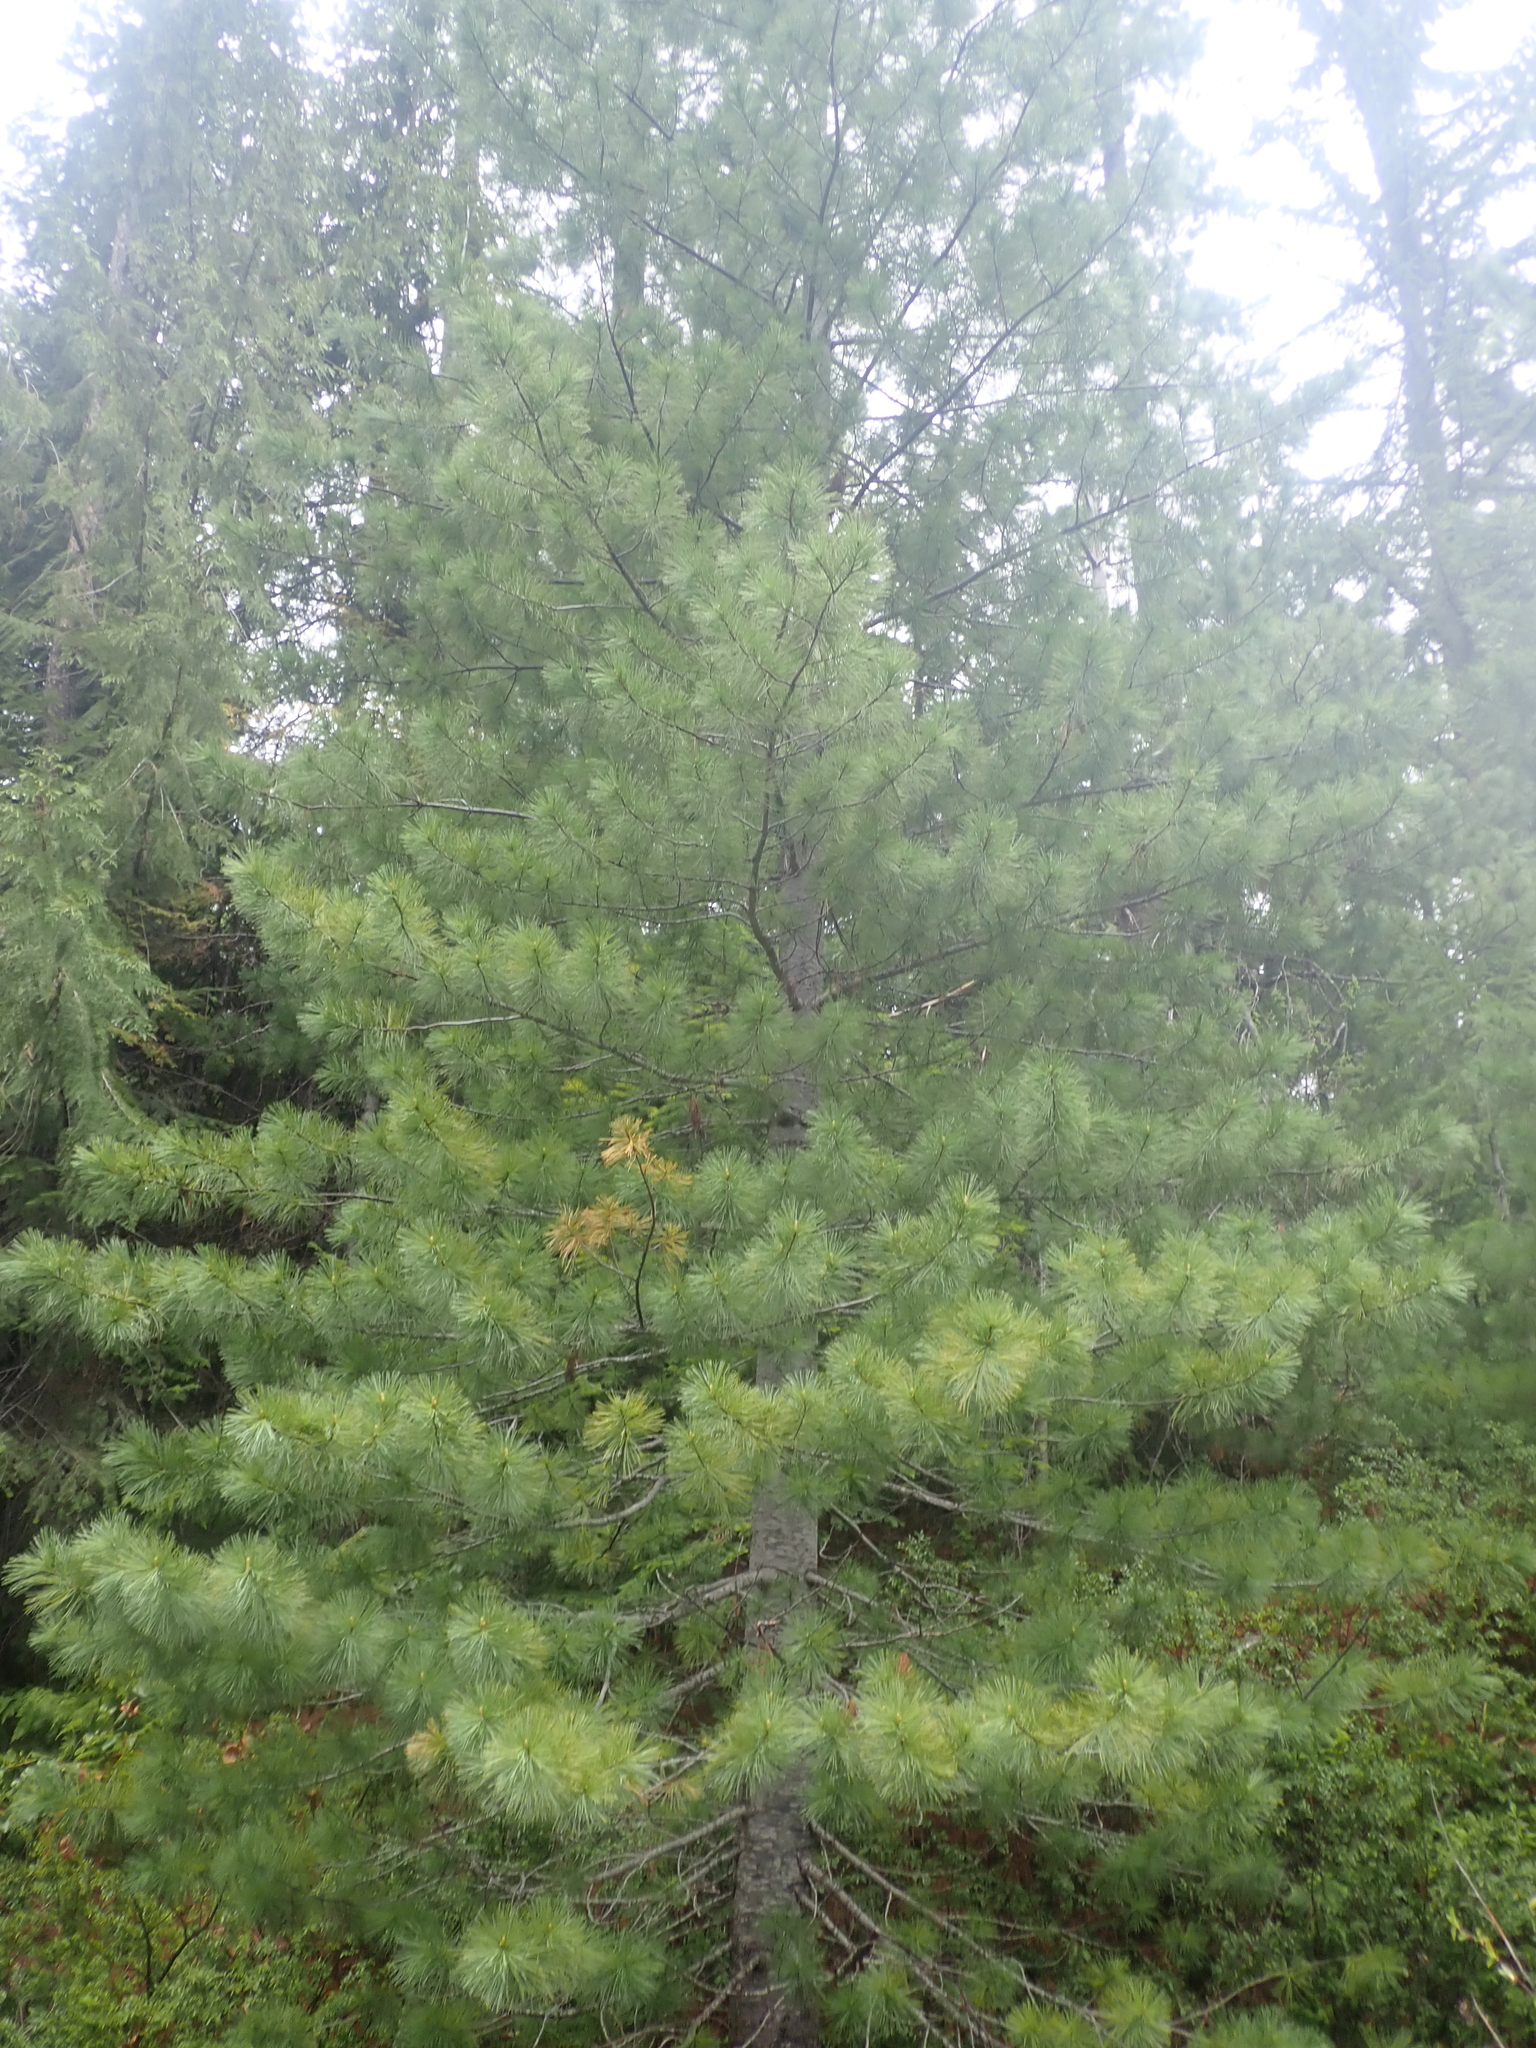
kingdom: Plantae
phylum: Tracheophyta
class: Pinopsida
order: Pinales
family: Pinaceae
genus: Pinus
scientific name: Pinus monticola
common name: Western white pine
